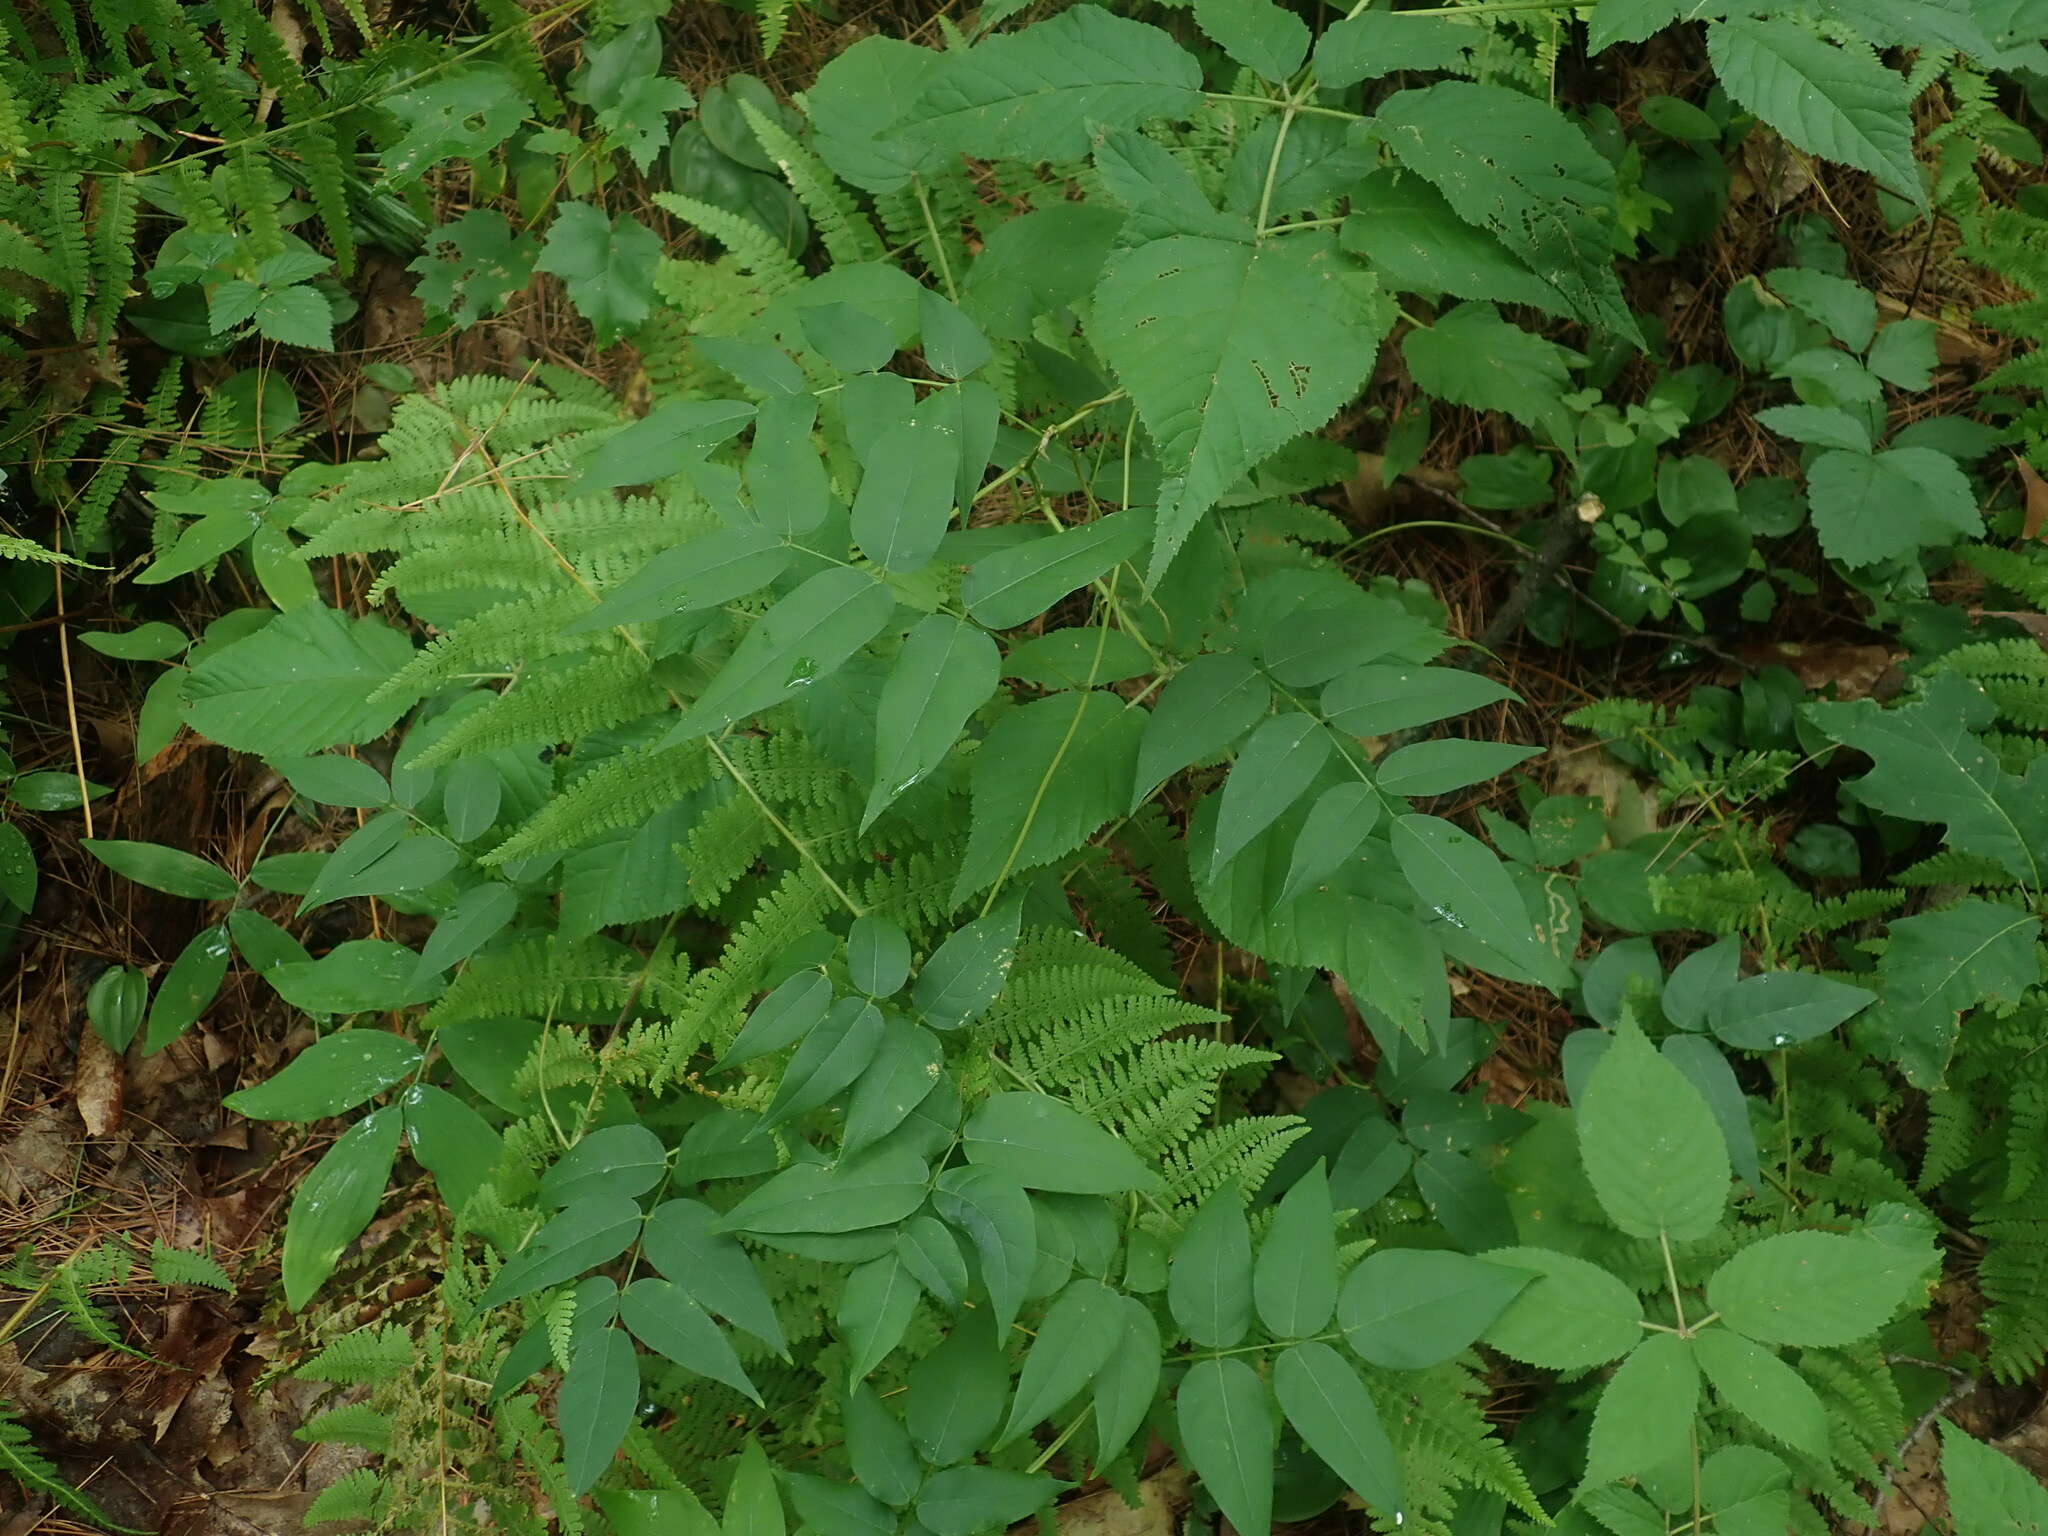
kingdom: Plantae
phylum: Tracheophyta
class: Magnoliopsida
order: Fabales
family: Fabaceae
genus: Apios
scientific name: Apios americana
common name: American potato-bean
